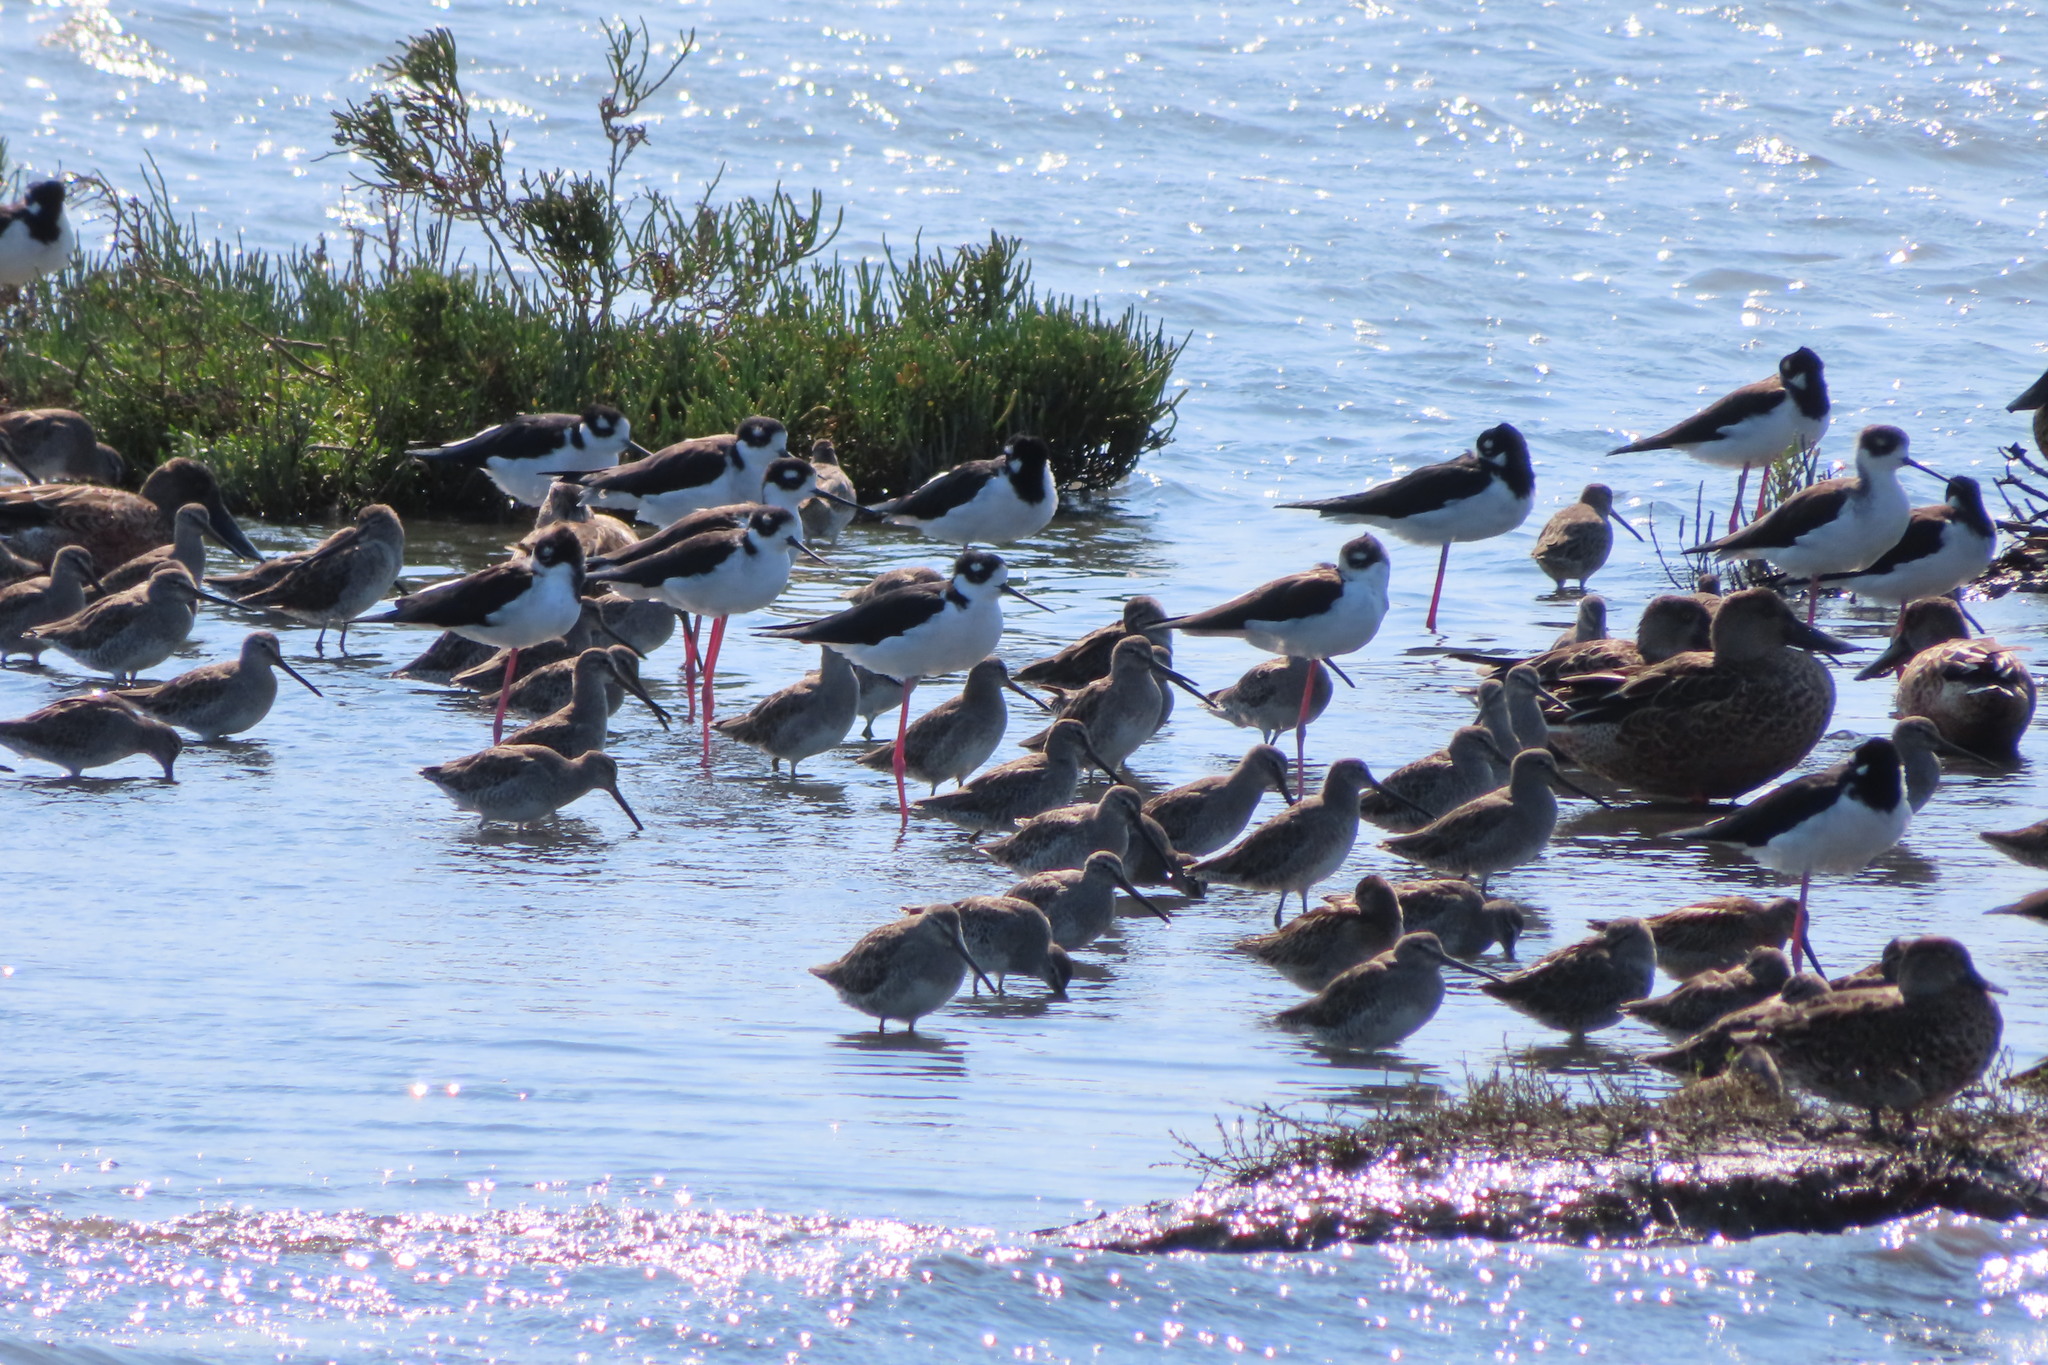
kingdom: Animalia
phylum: Chordata
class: Aves
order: Charadriiformes
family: Recurvirostridae
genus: Himantopus
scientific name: Himantopus mexicanus
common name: Black-necked stilt
